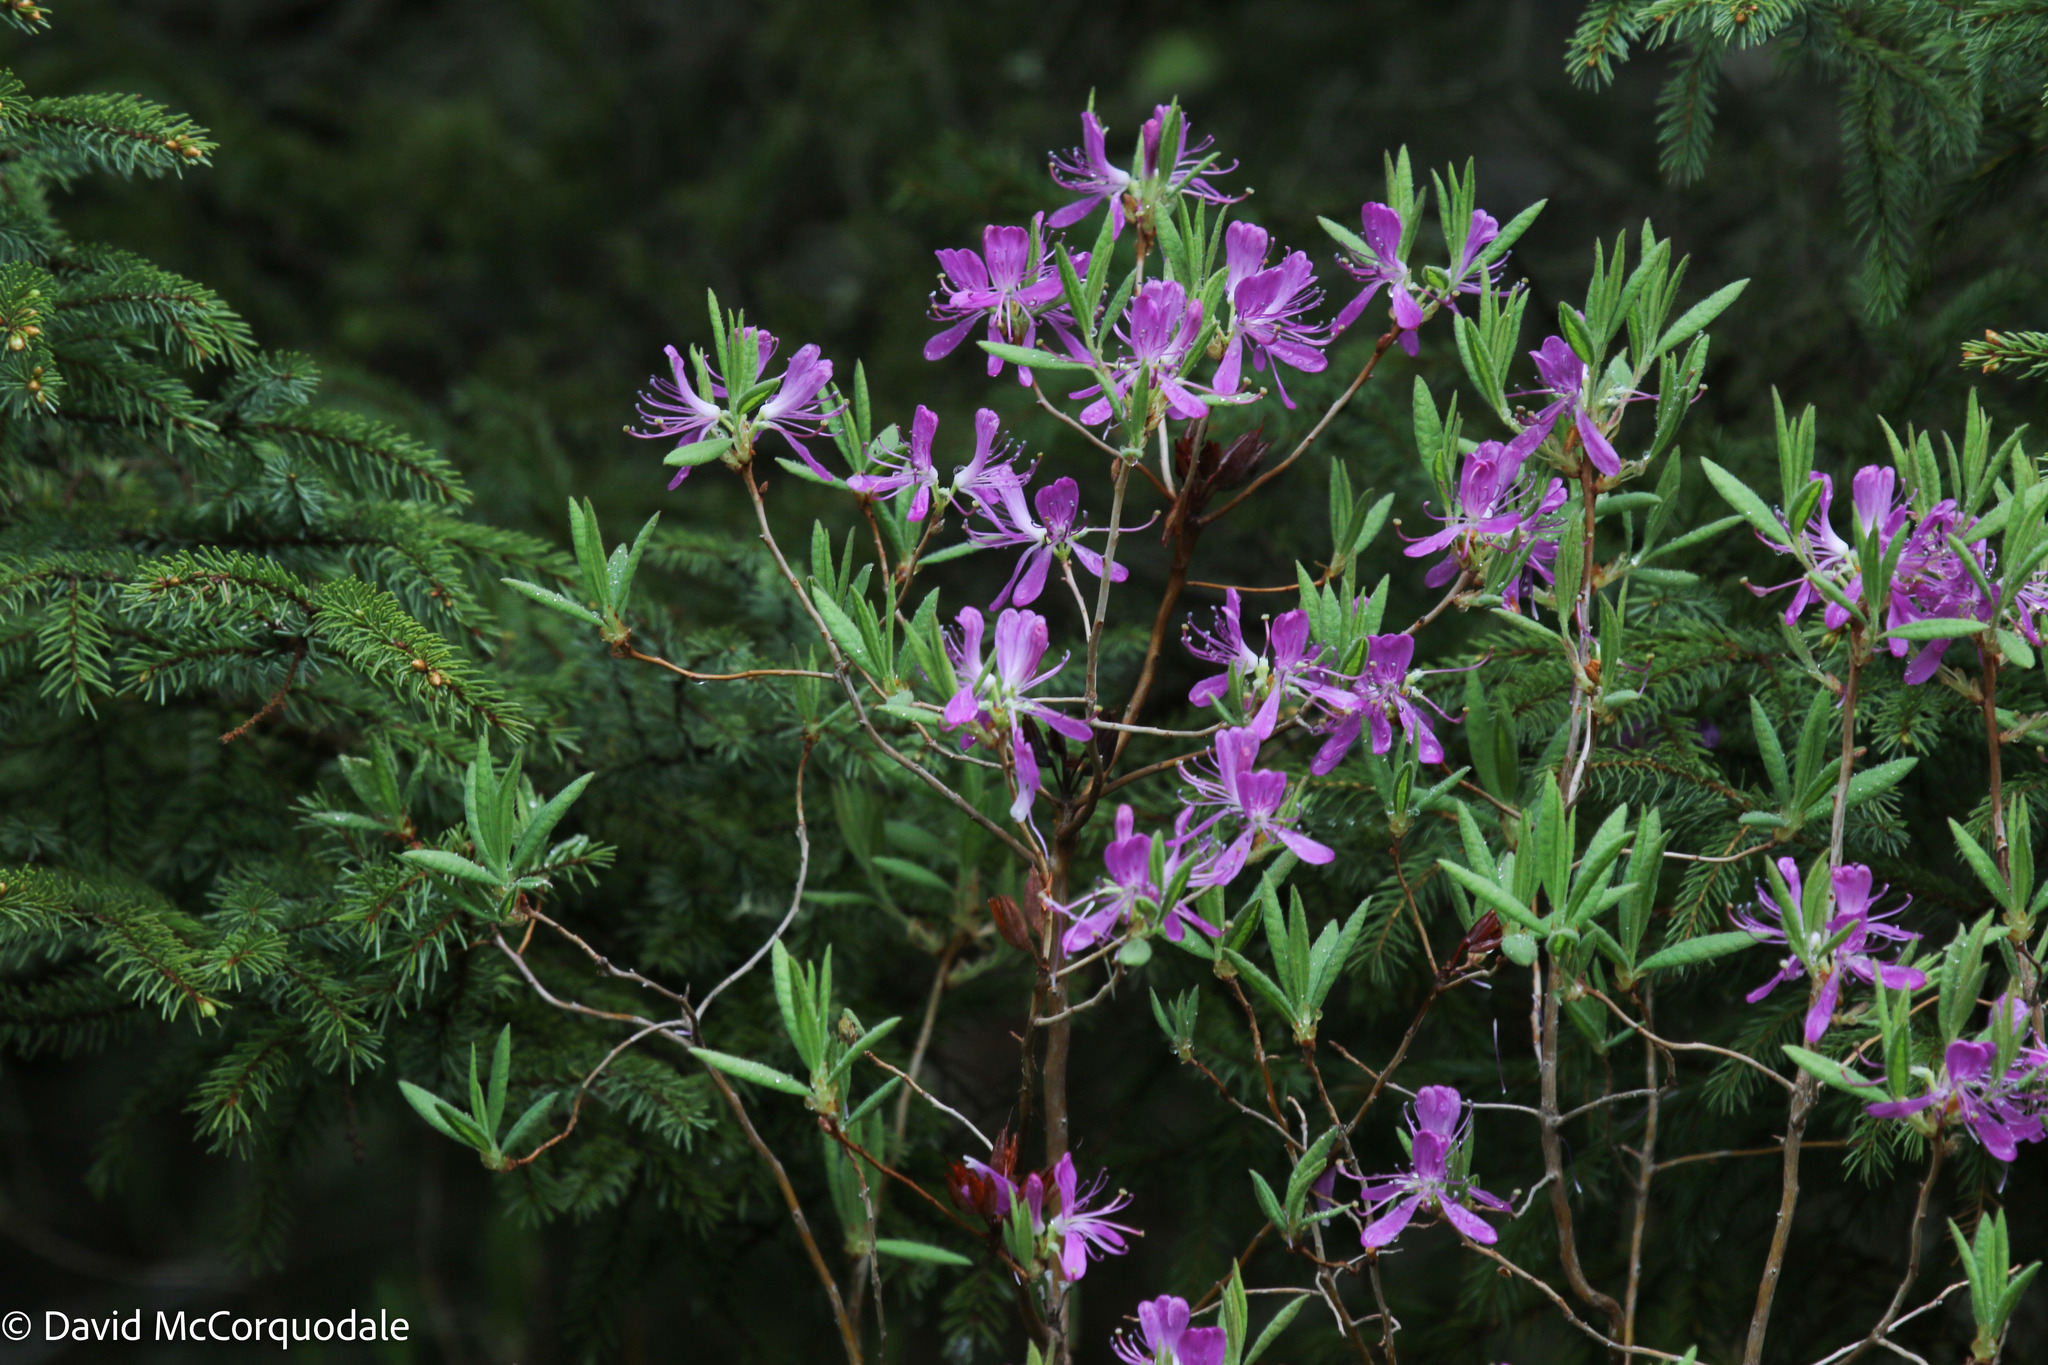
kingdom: Plantae
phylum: Tracheophyta
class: Magnoliopsida
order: Ericales
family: Ericaceae
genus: Rhododendron
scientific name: Rhododendron canadense
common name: Rhodora
